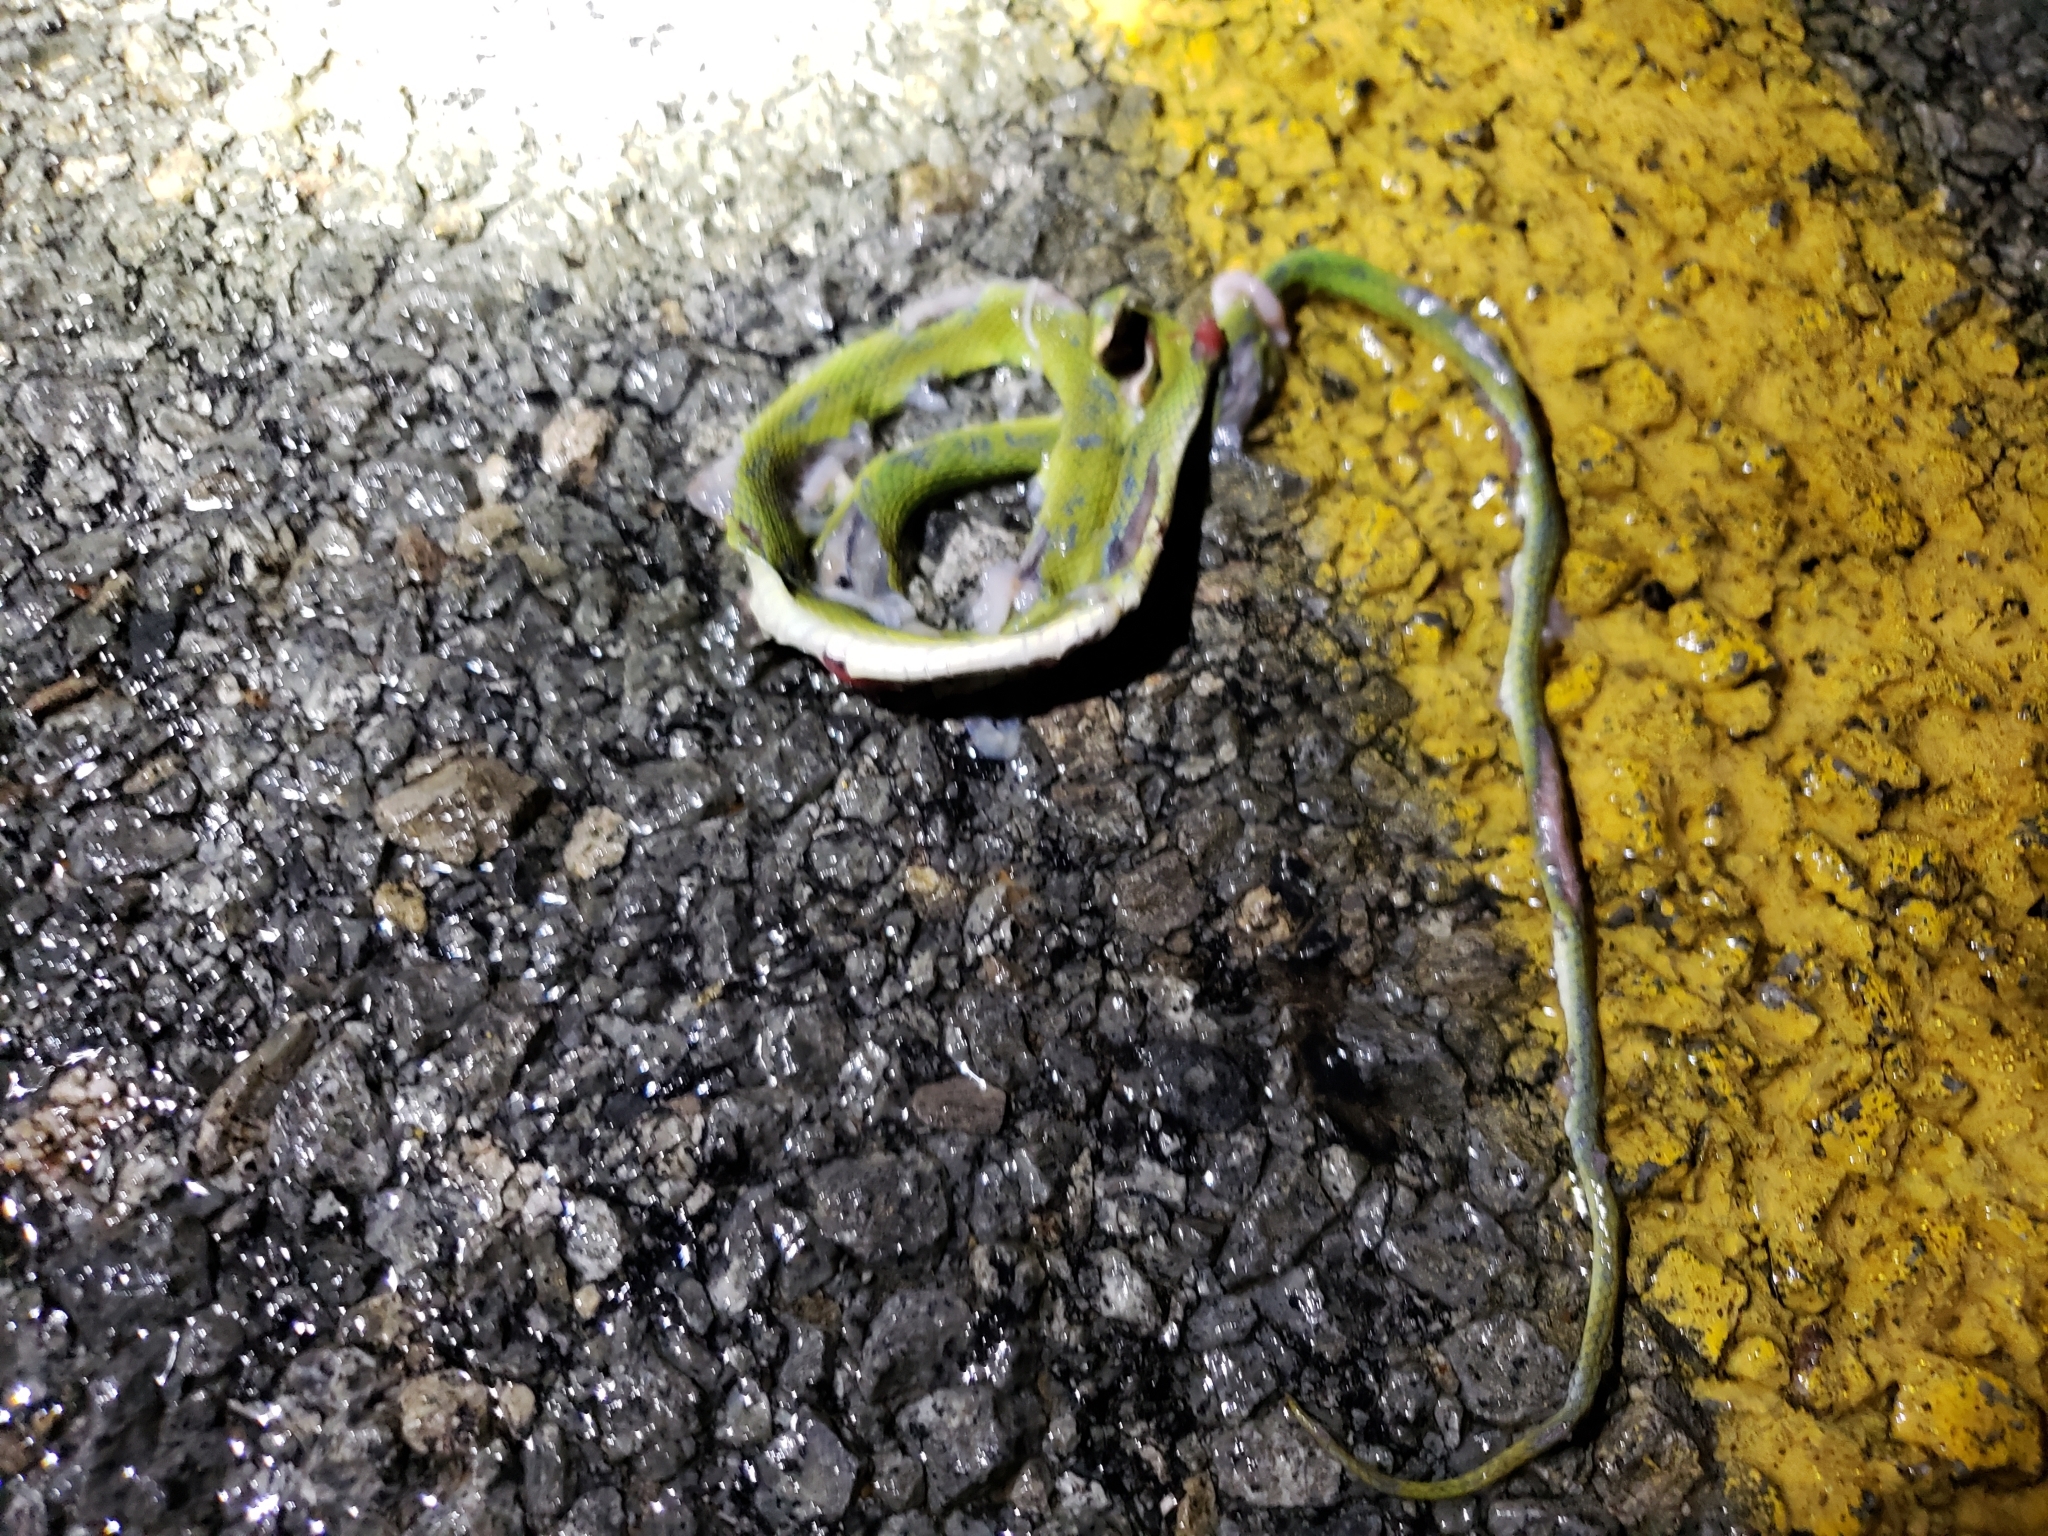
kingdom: Animalia
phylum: Chordata
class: Squamata
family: Colubridae
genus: Opheodrys
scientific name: Opheodrys aestivus
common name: Rough greensnake
